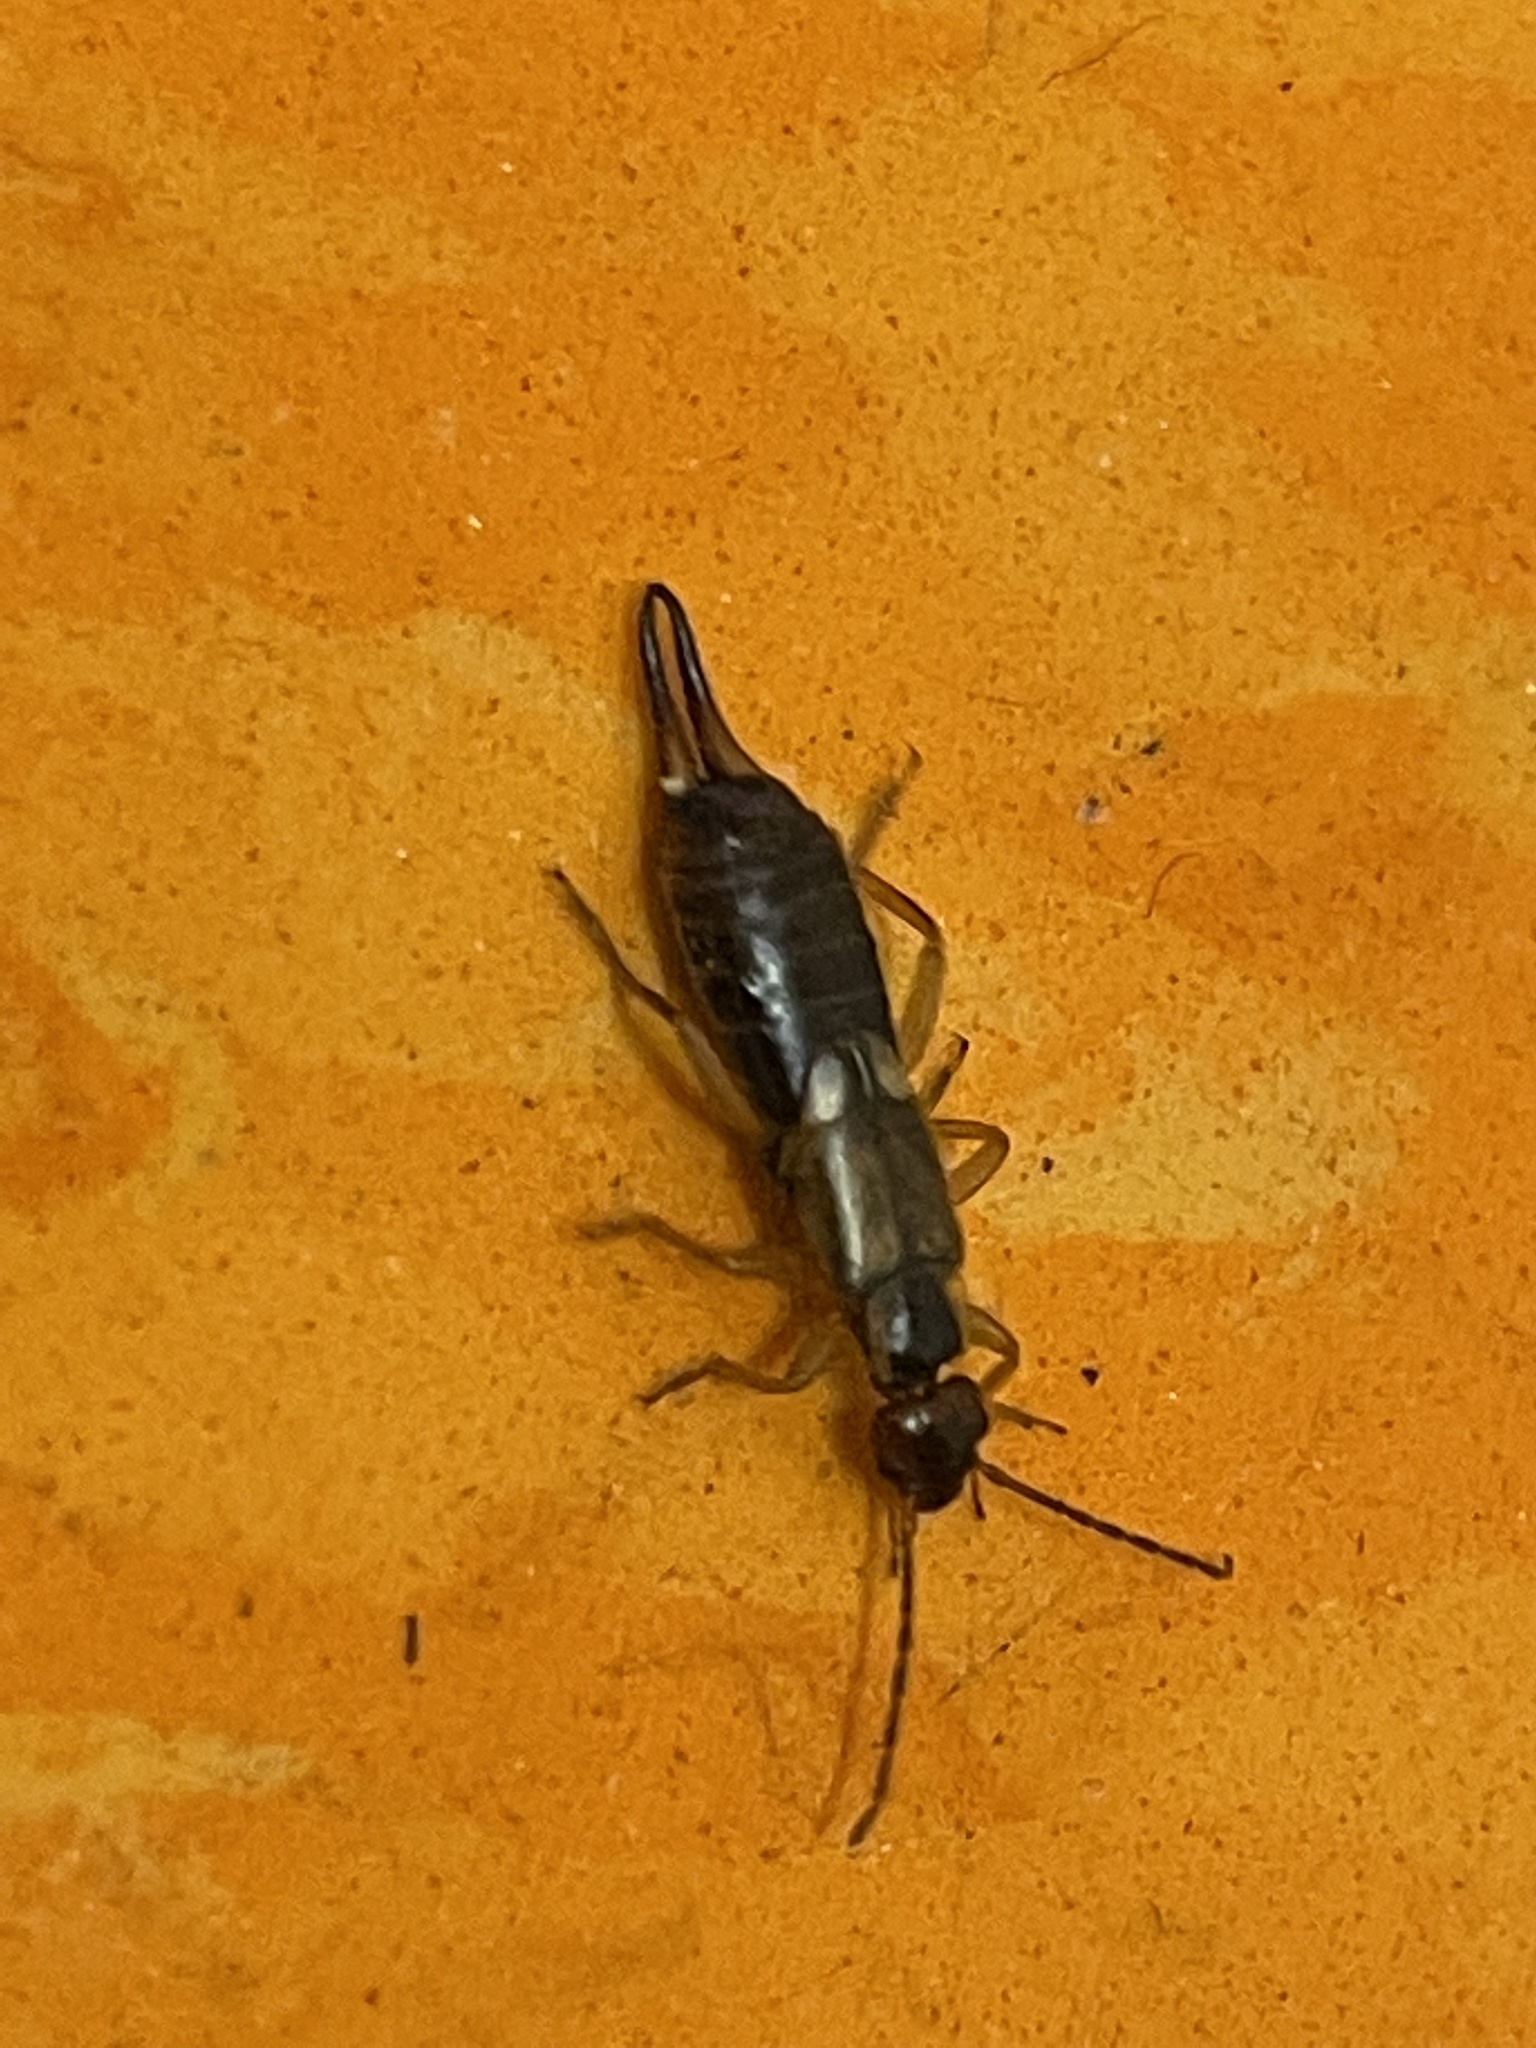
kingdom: Animalia
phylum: Arthropoda
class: Insecta
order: Dermaptera
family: Forficulidae
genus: Forficula
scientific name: Forficula
